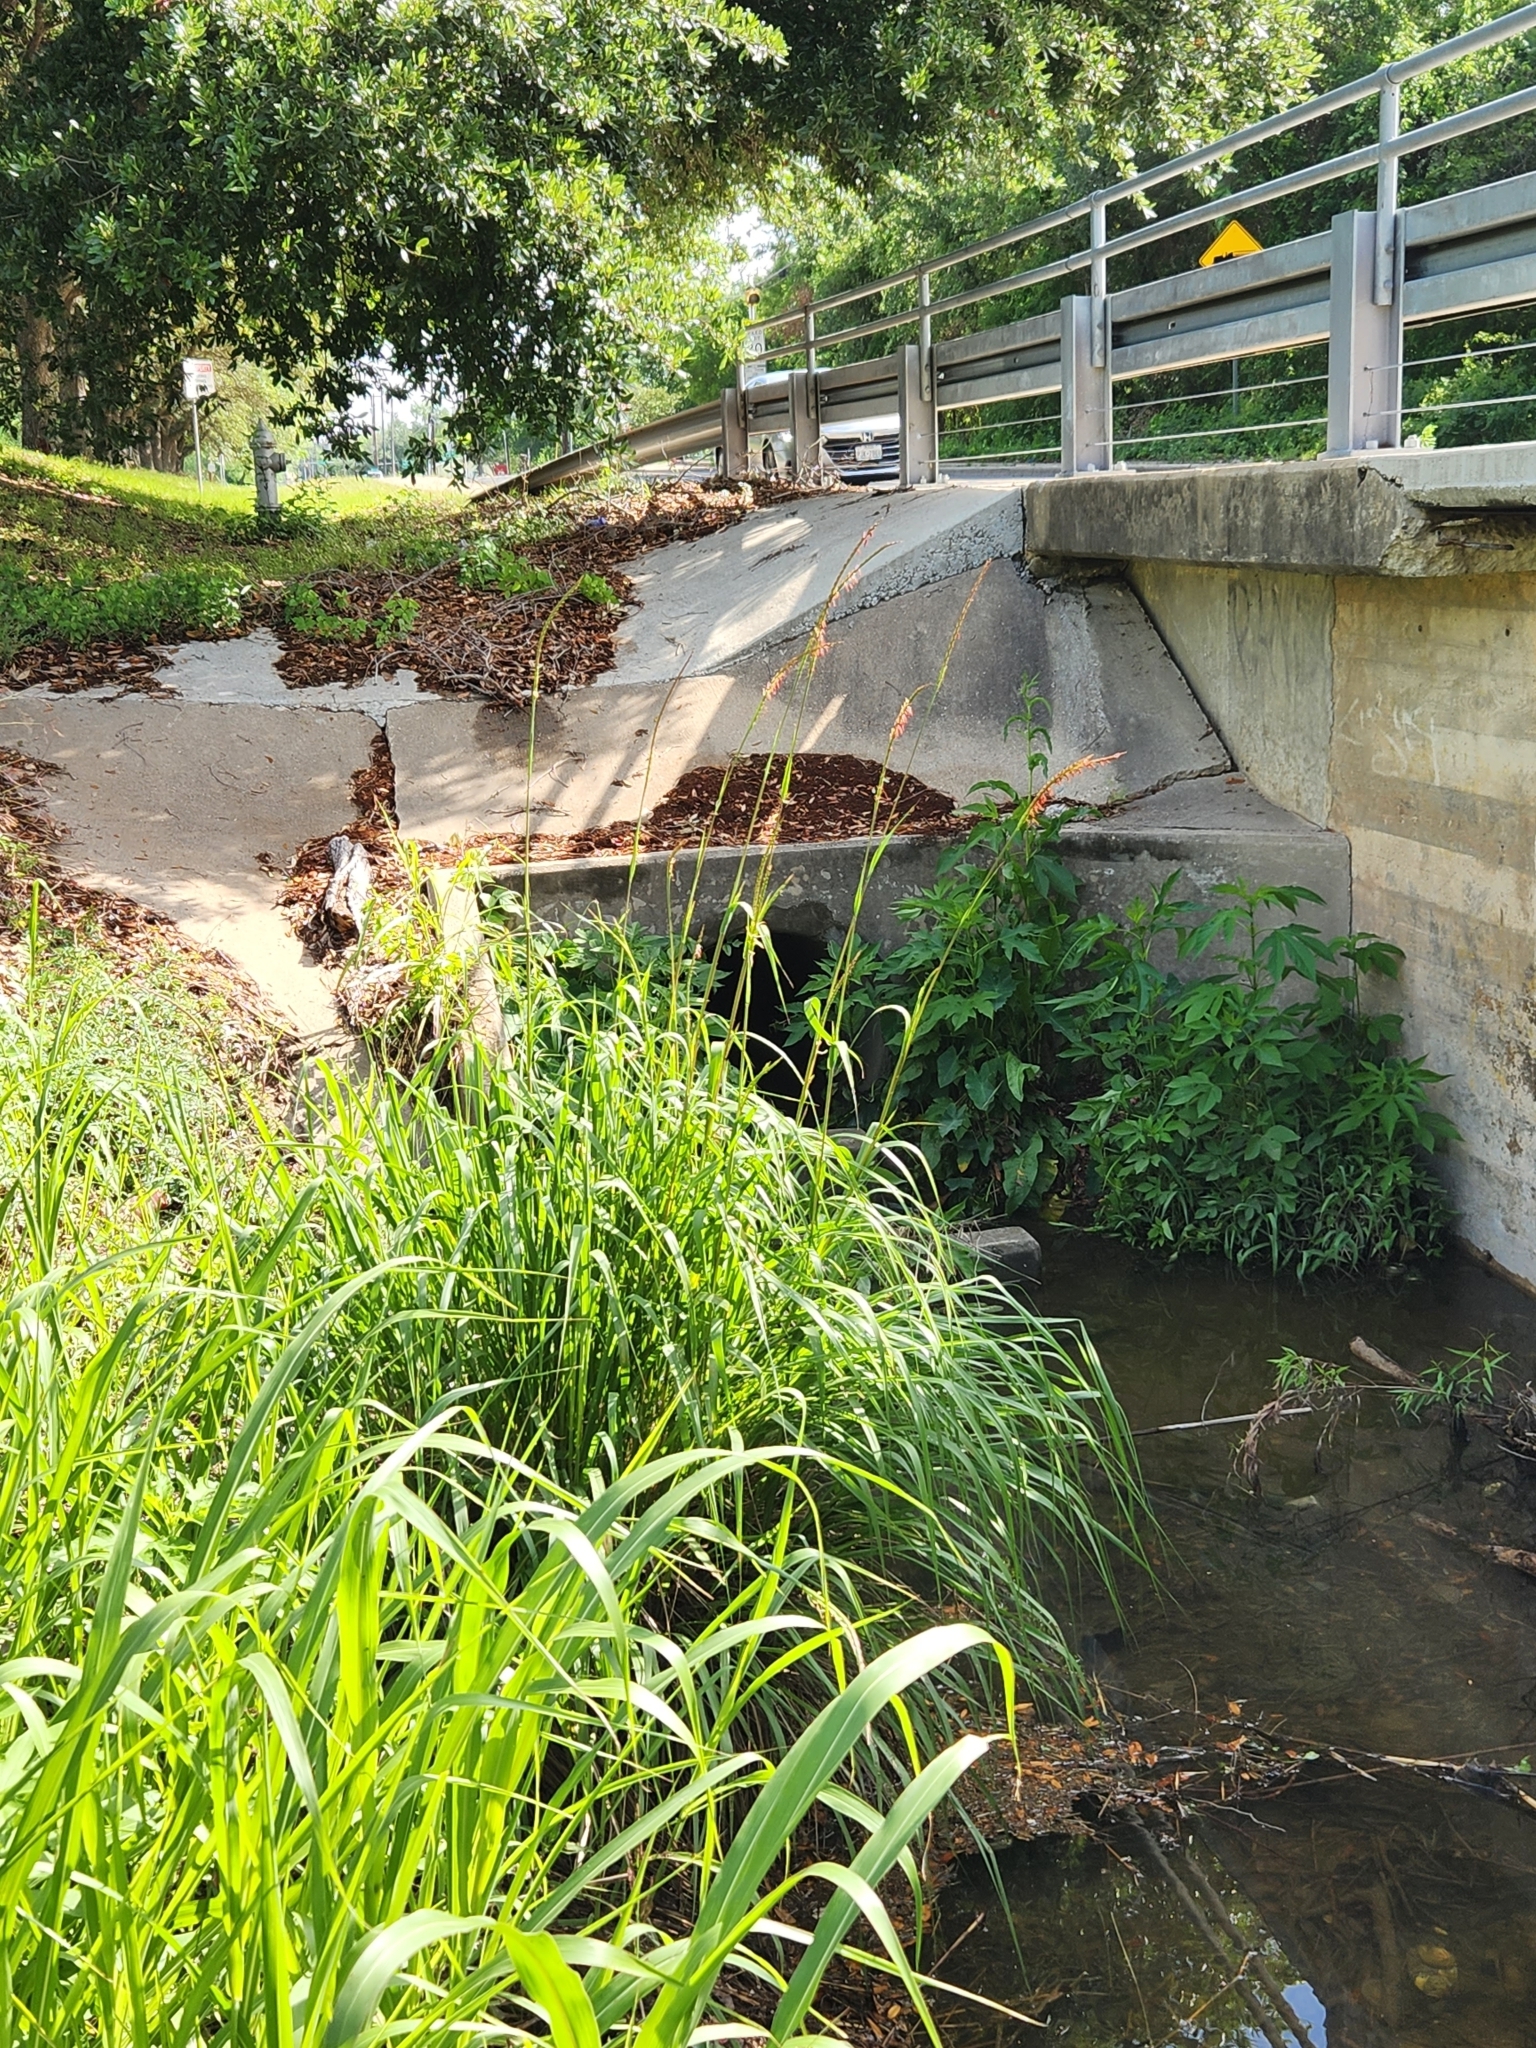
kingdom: Plantae
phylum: Tracheophyta
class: Liliopsida
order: Poales
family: Poaceae
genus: Tripsacum
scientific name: Tripsacum dactyloides
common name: Buffalo-grass
